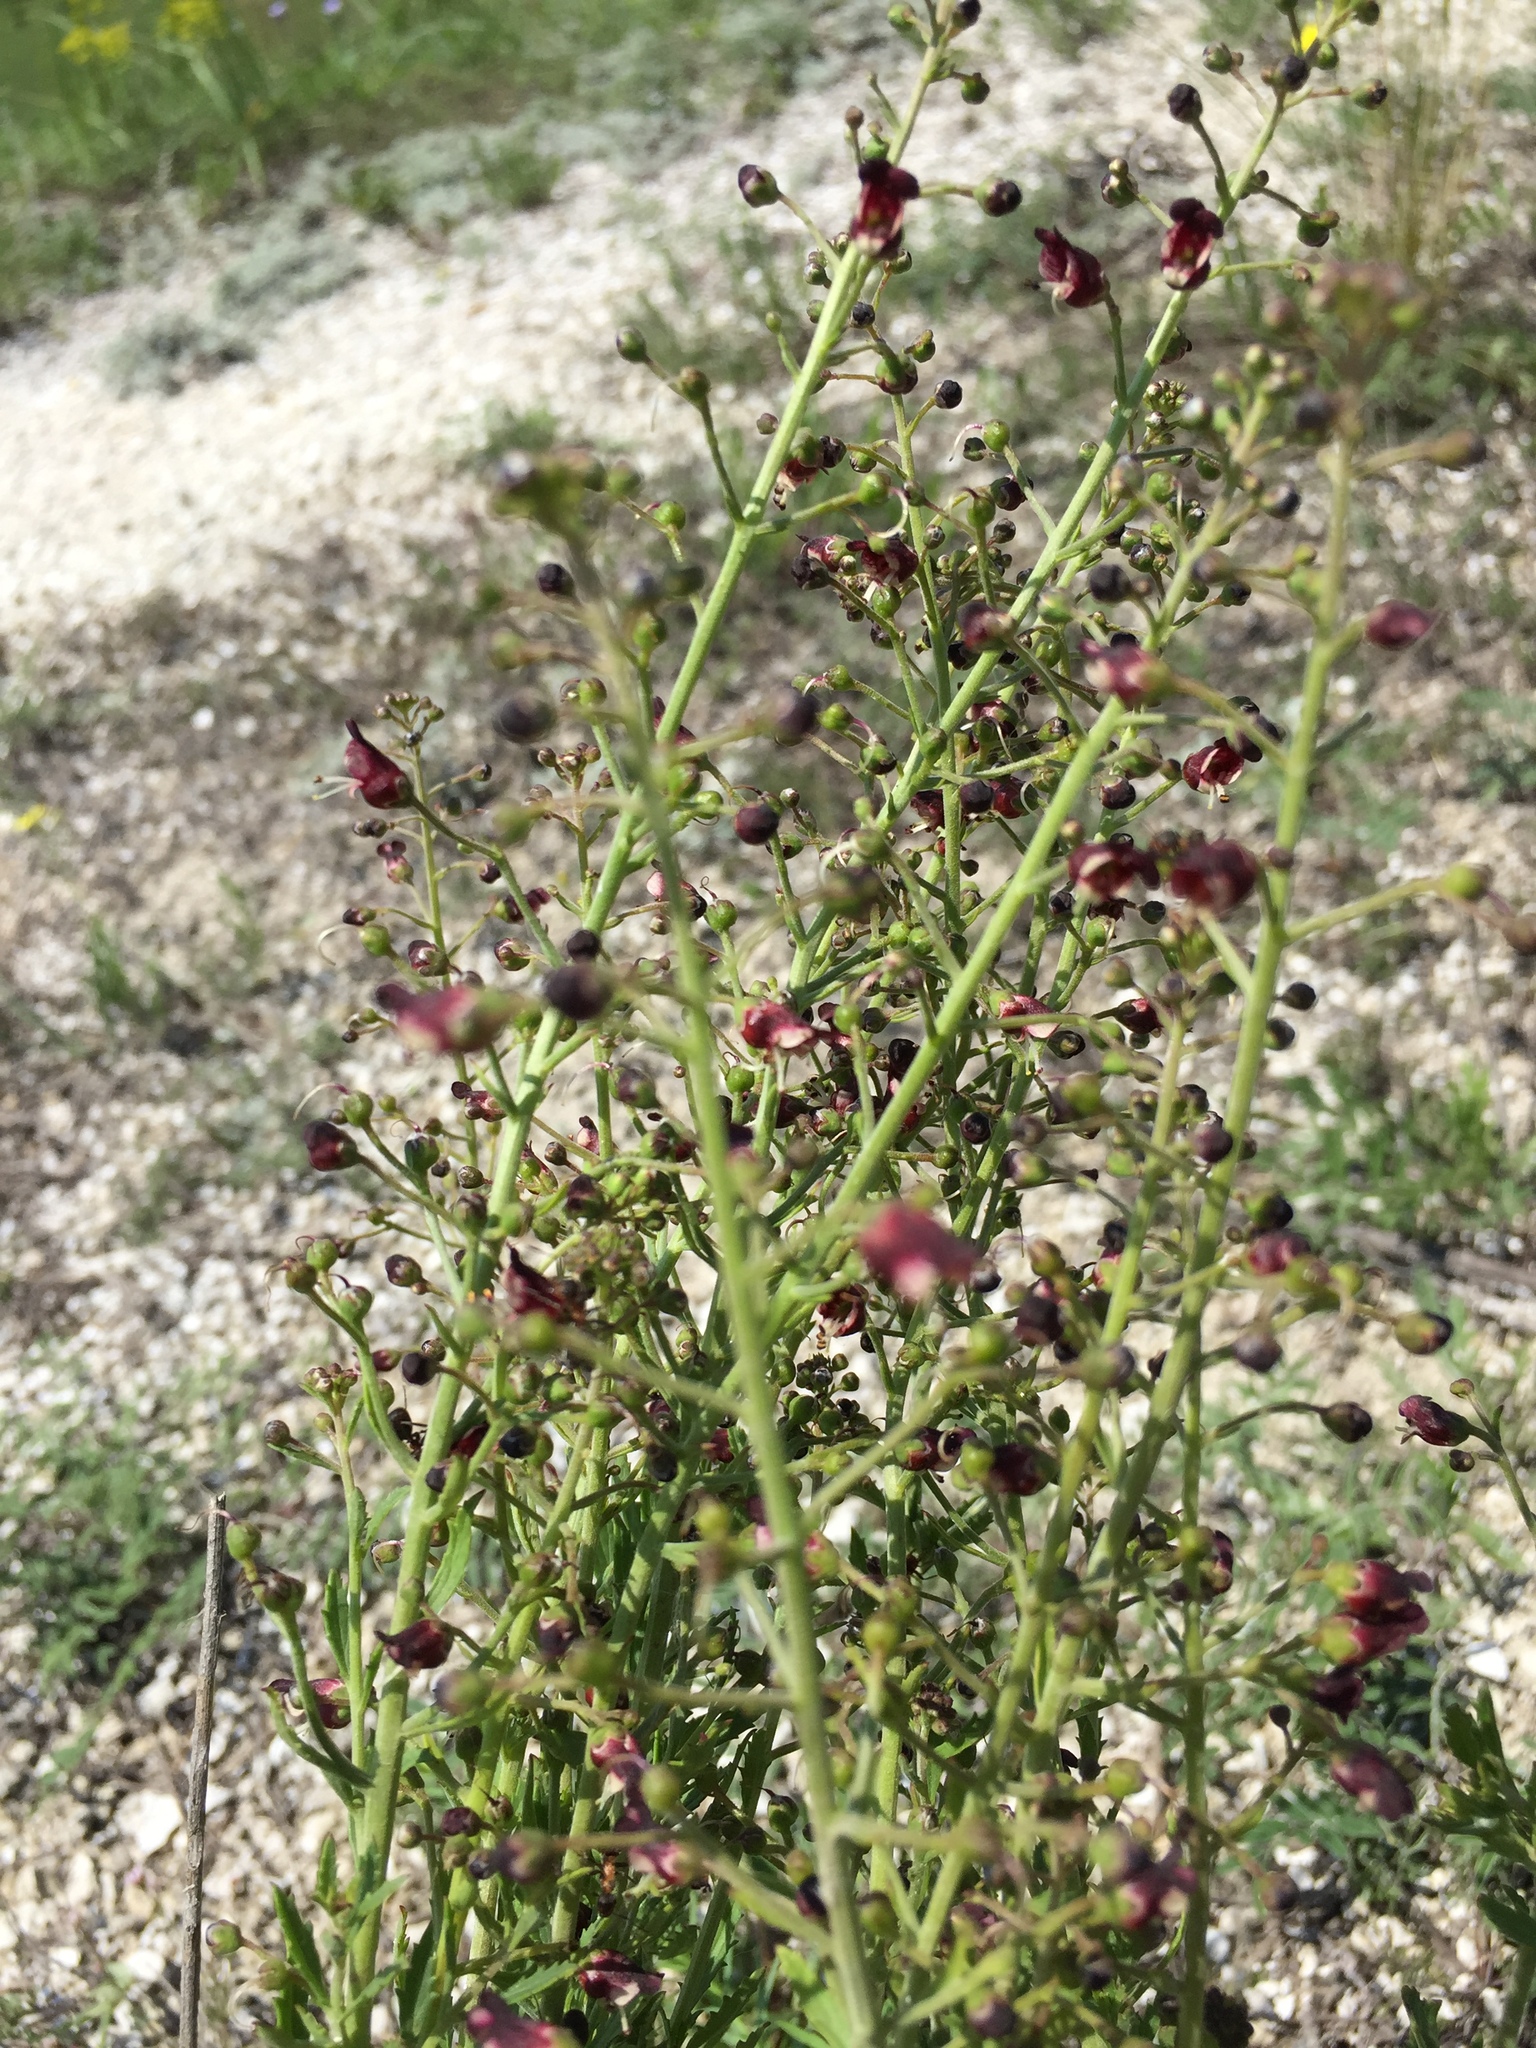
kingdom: Plantae
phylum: Tracheophyta
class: Magnoliopsida
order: Lamiales
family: Scrophulariaceae
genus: Scrophularia
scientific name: Scrophularia cretacea
